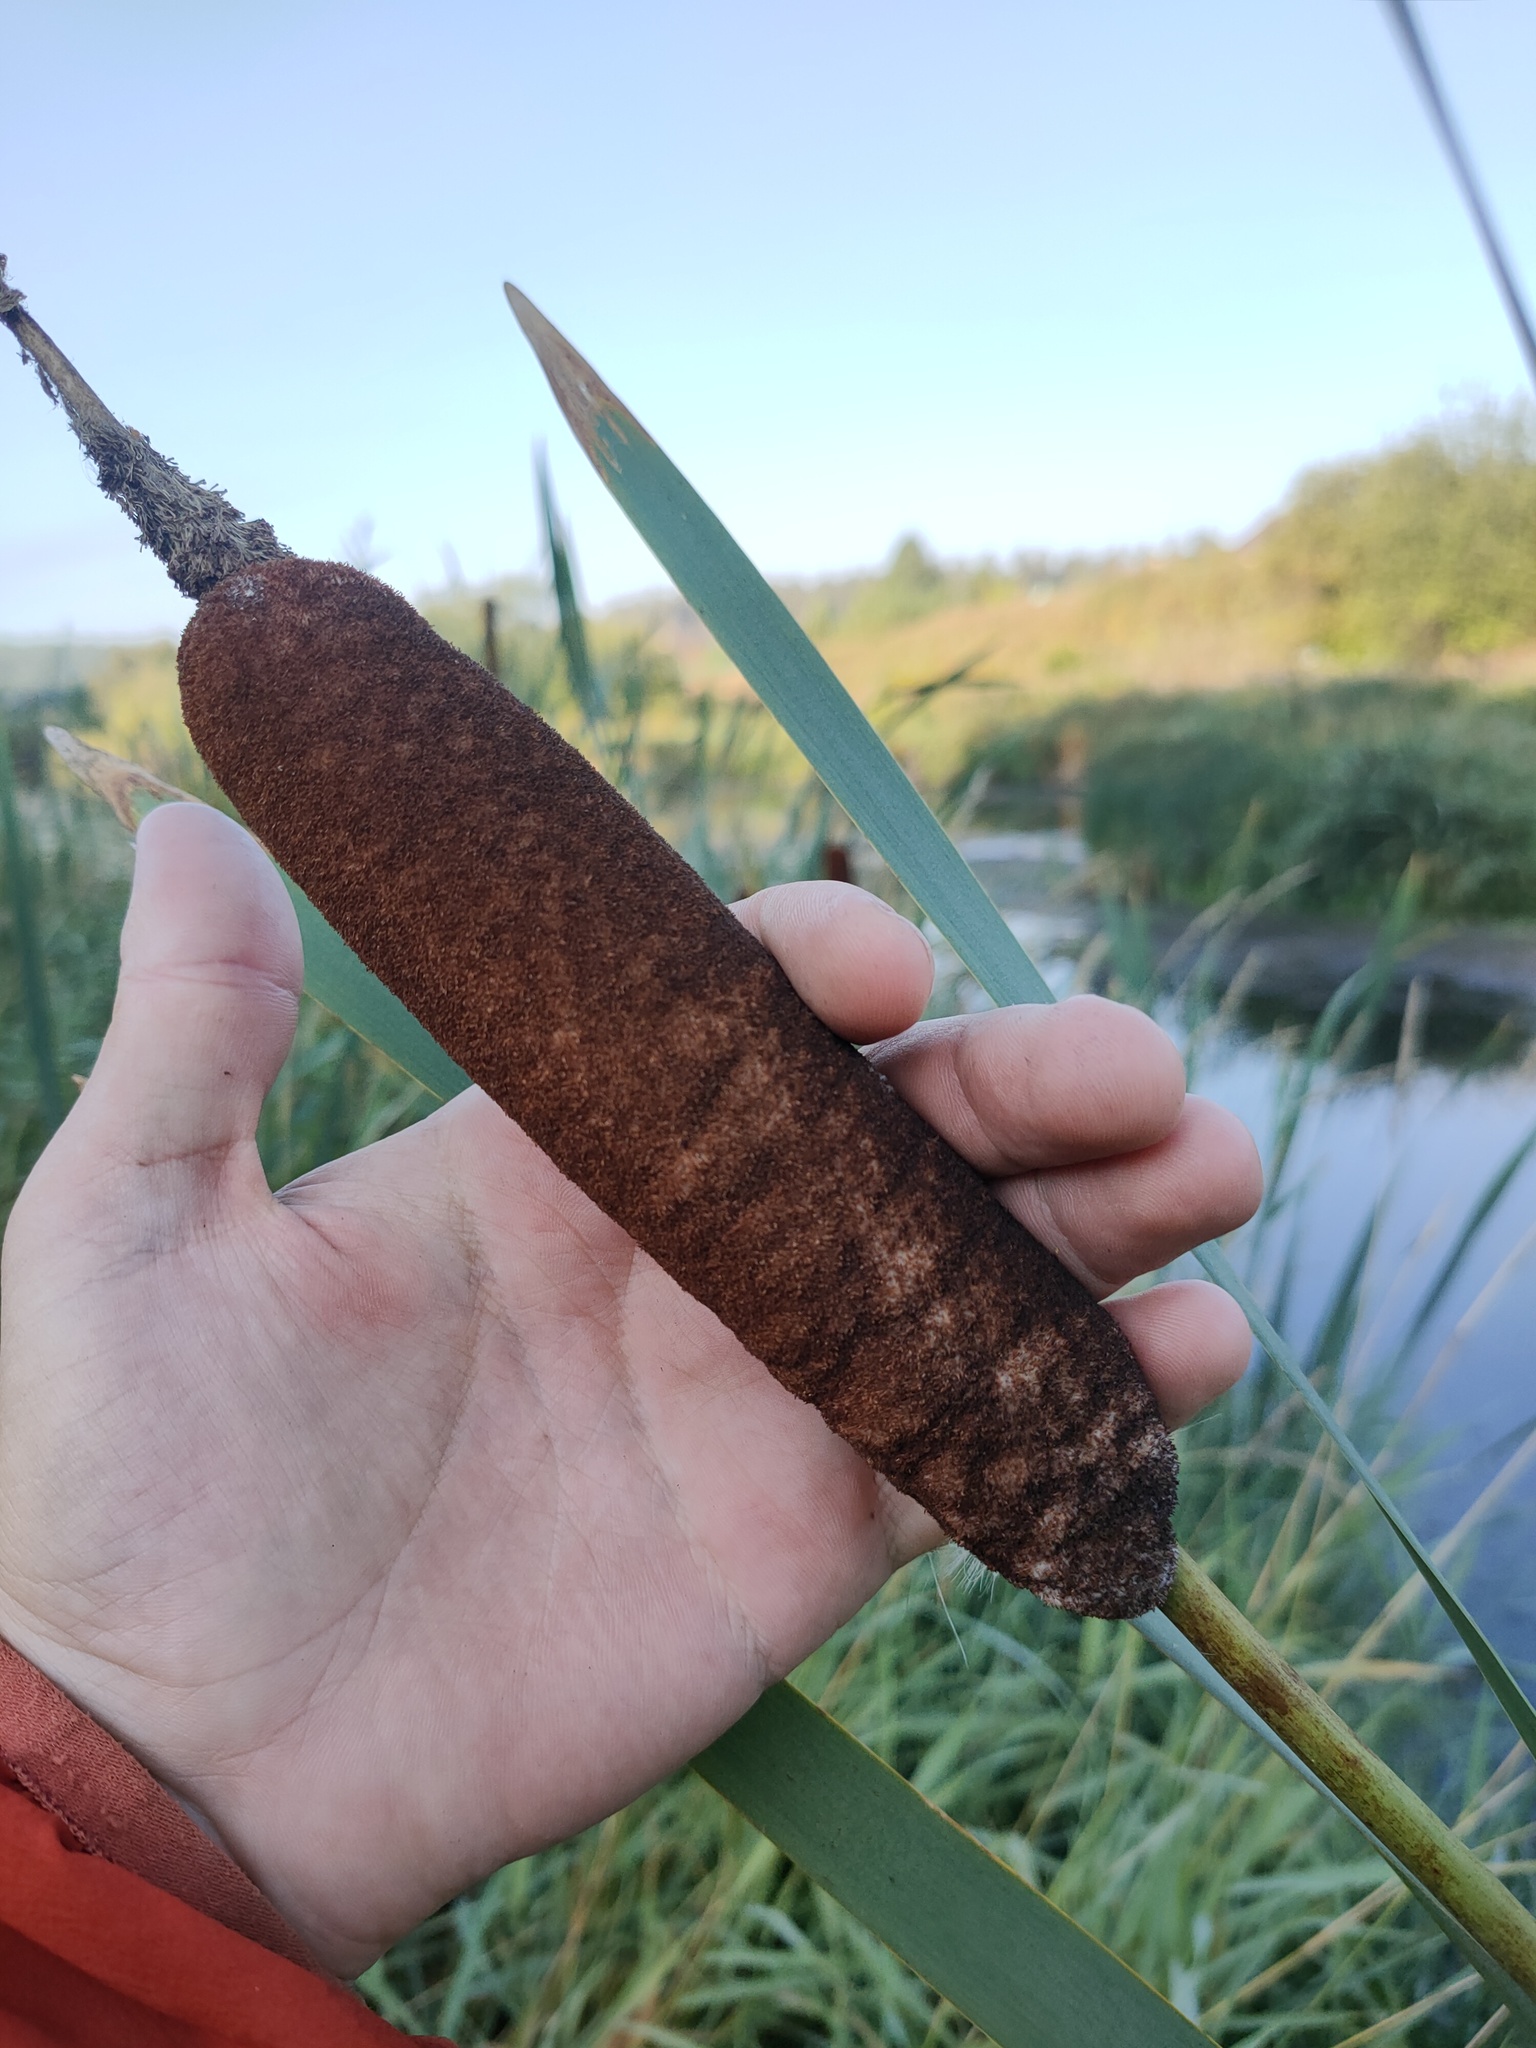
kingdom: Plantae
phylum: Tracheophyta
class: Liliopsida
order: Poales
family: Typhaceae
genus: Typha
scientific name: Typha latifolia
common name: Broadleaf cattail
